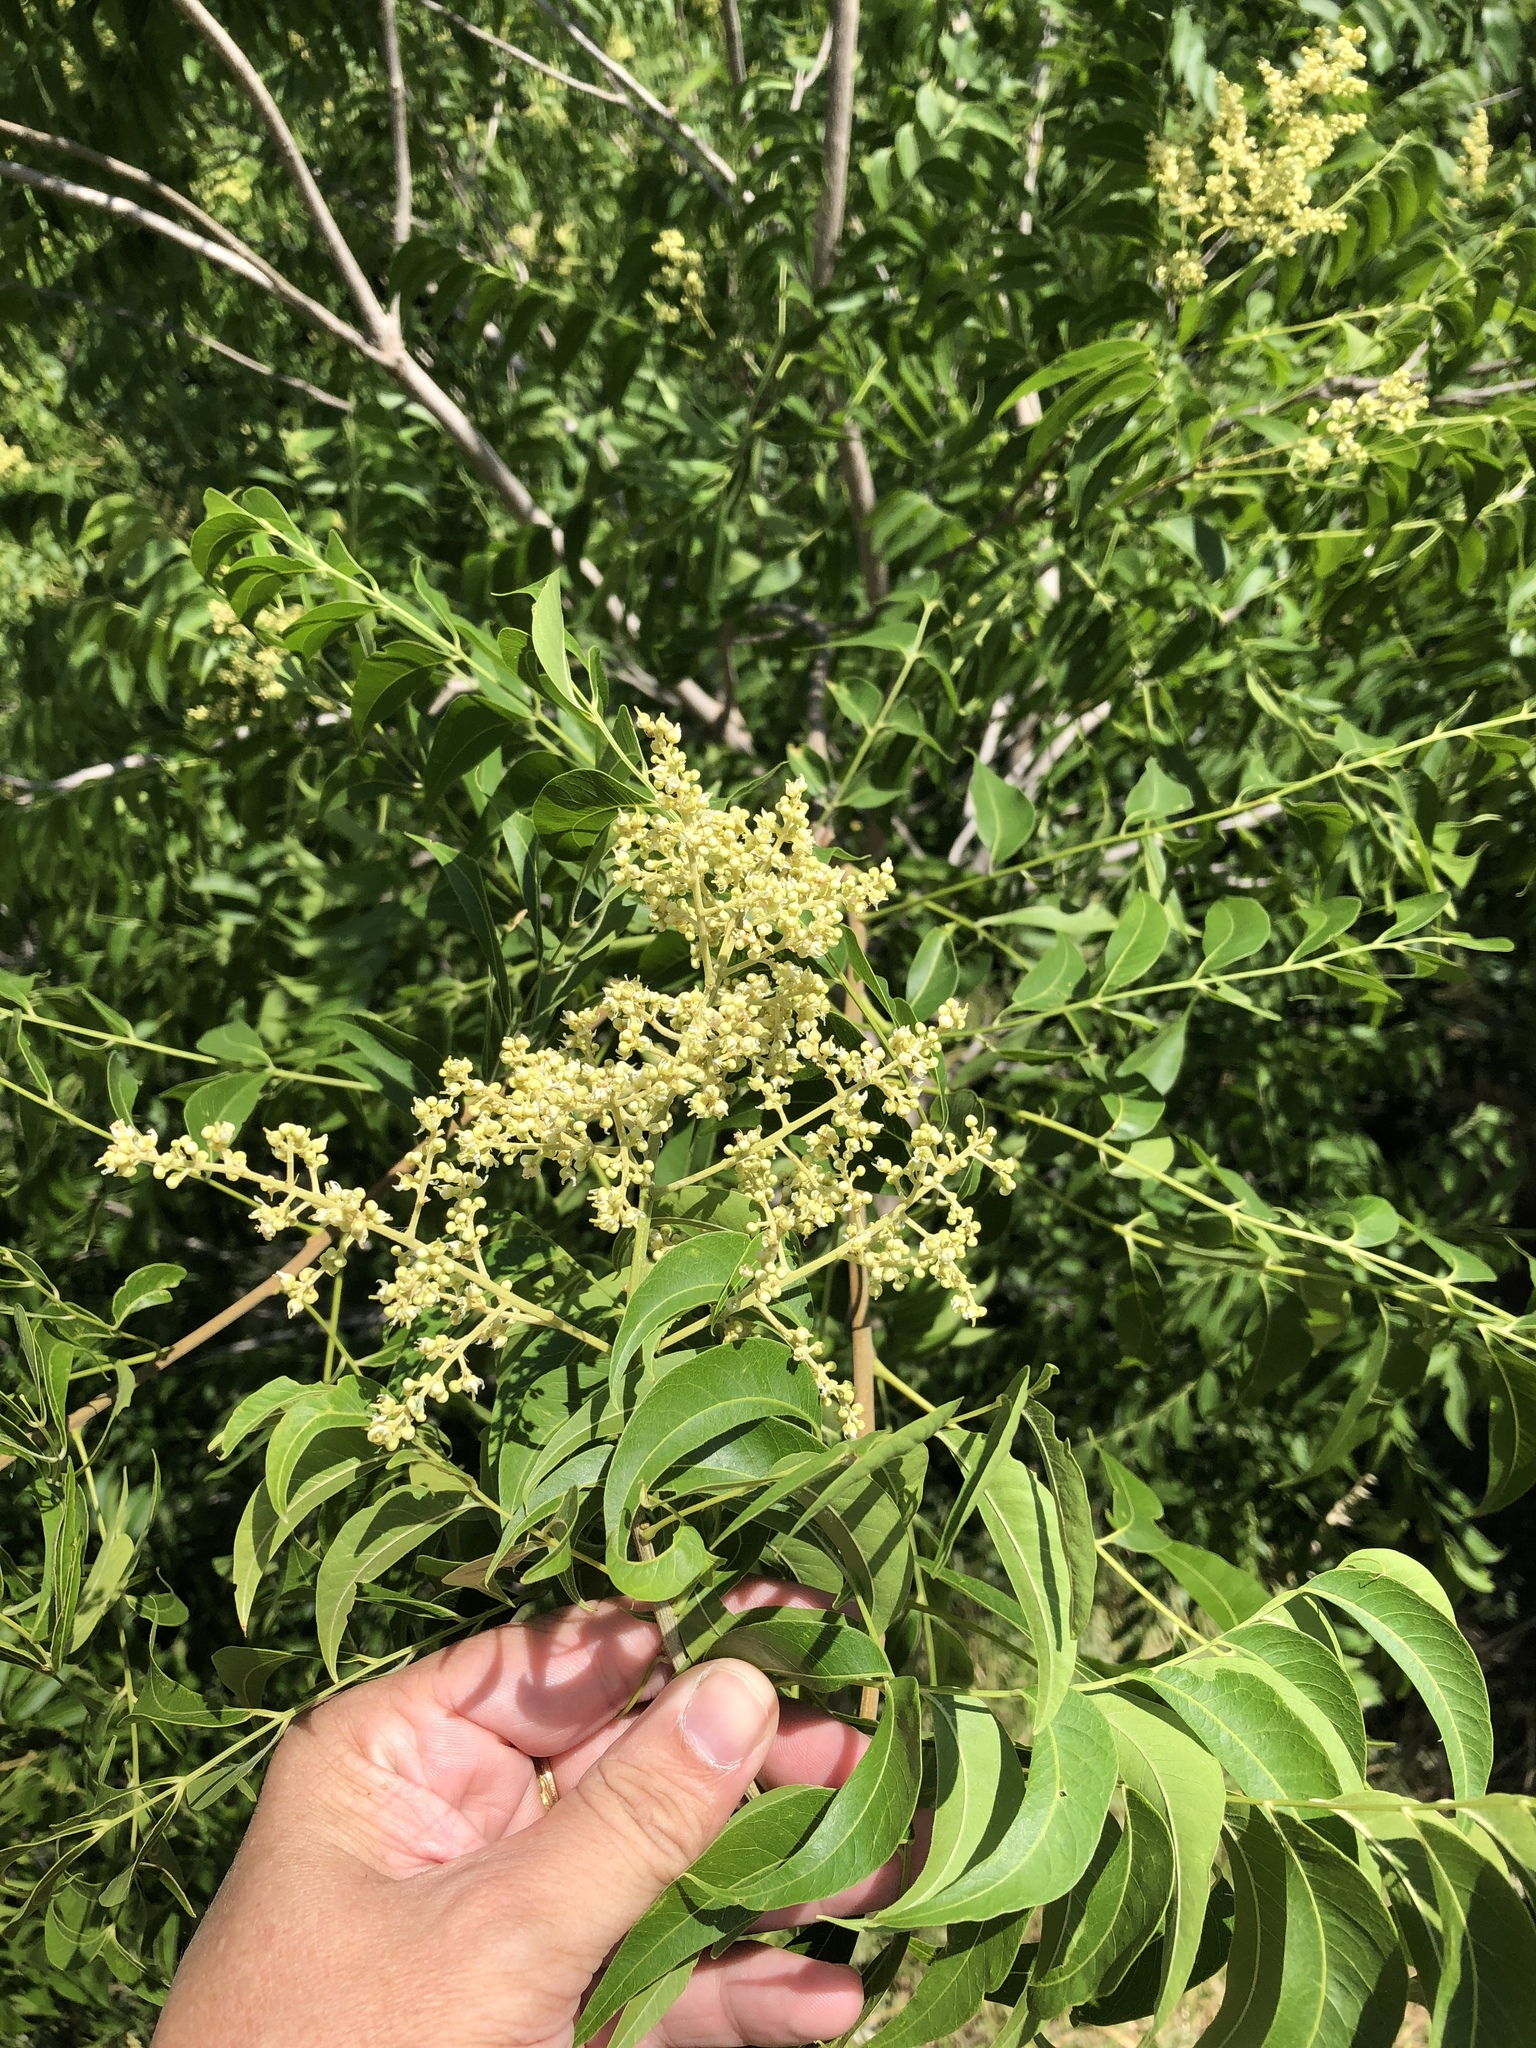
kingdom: Plantae
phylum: Tracheophyta
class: Magnoliopsida
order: Sapindales
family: Sapindaceae
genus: Sapindus
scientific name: Sapindus drummondii
